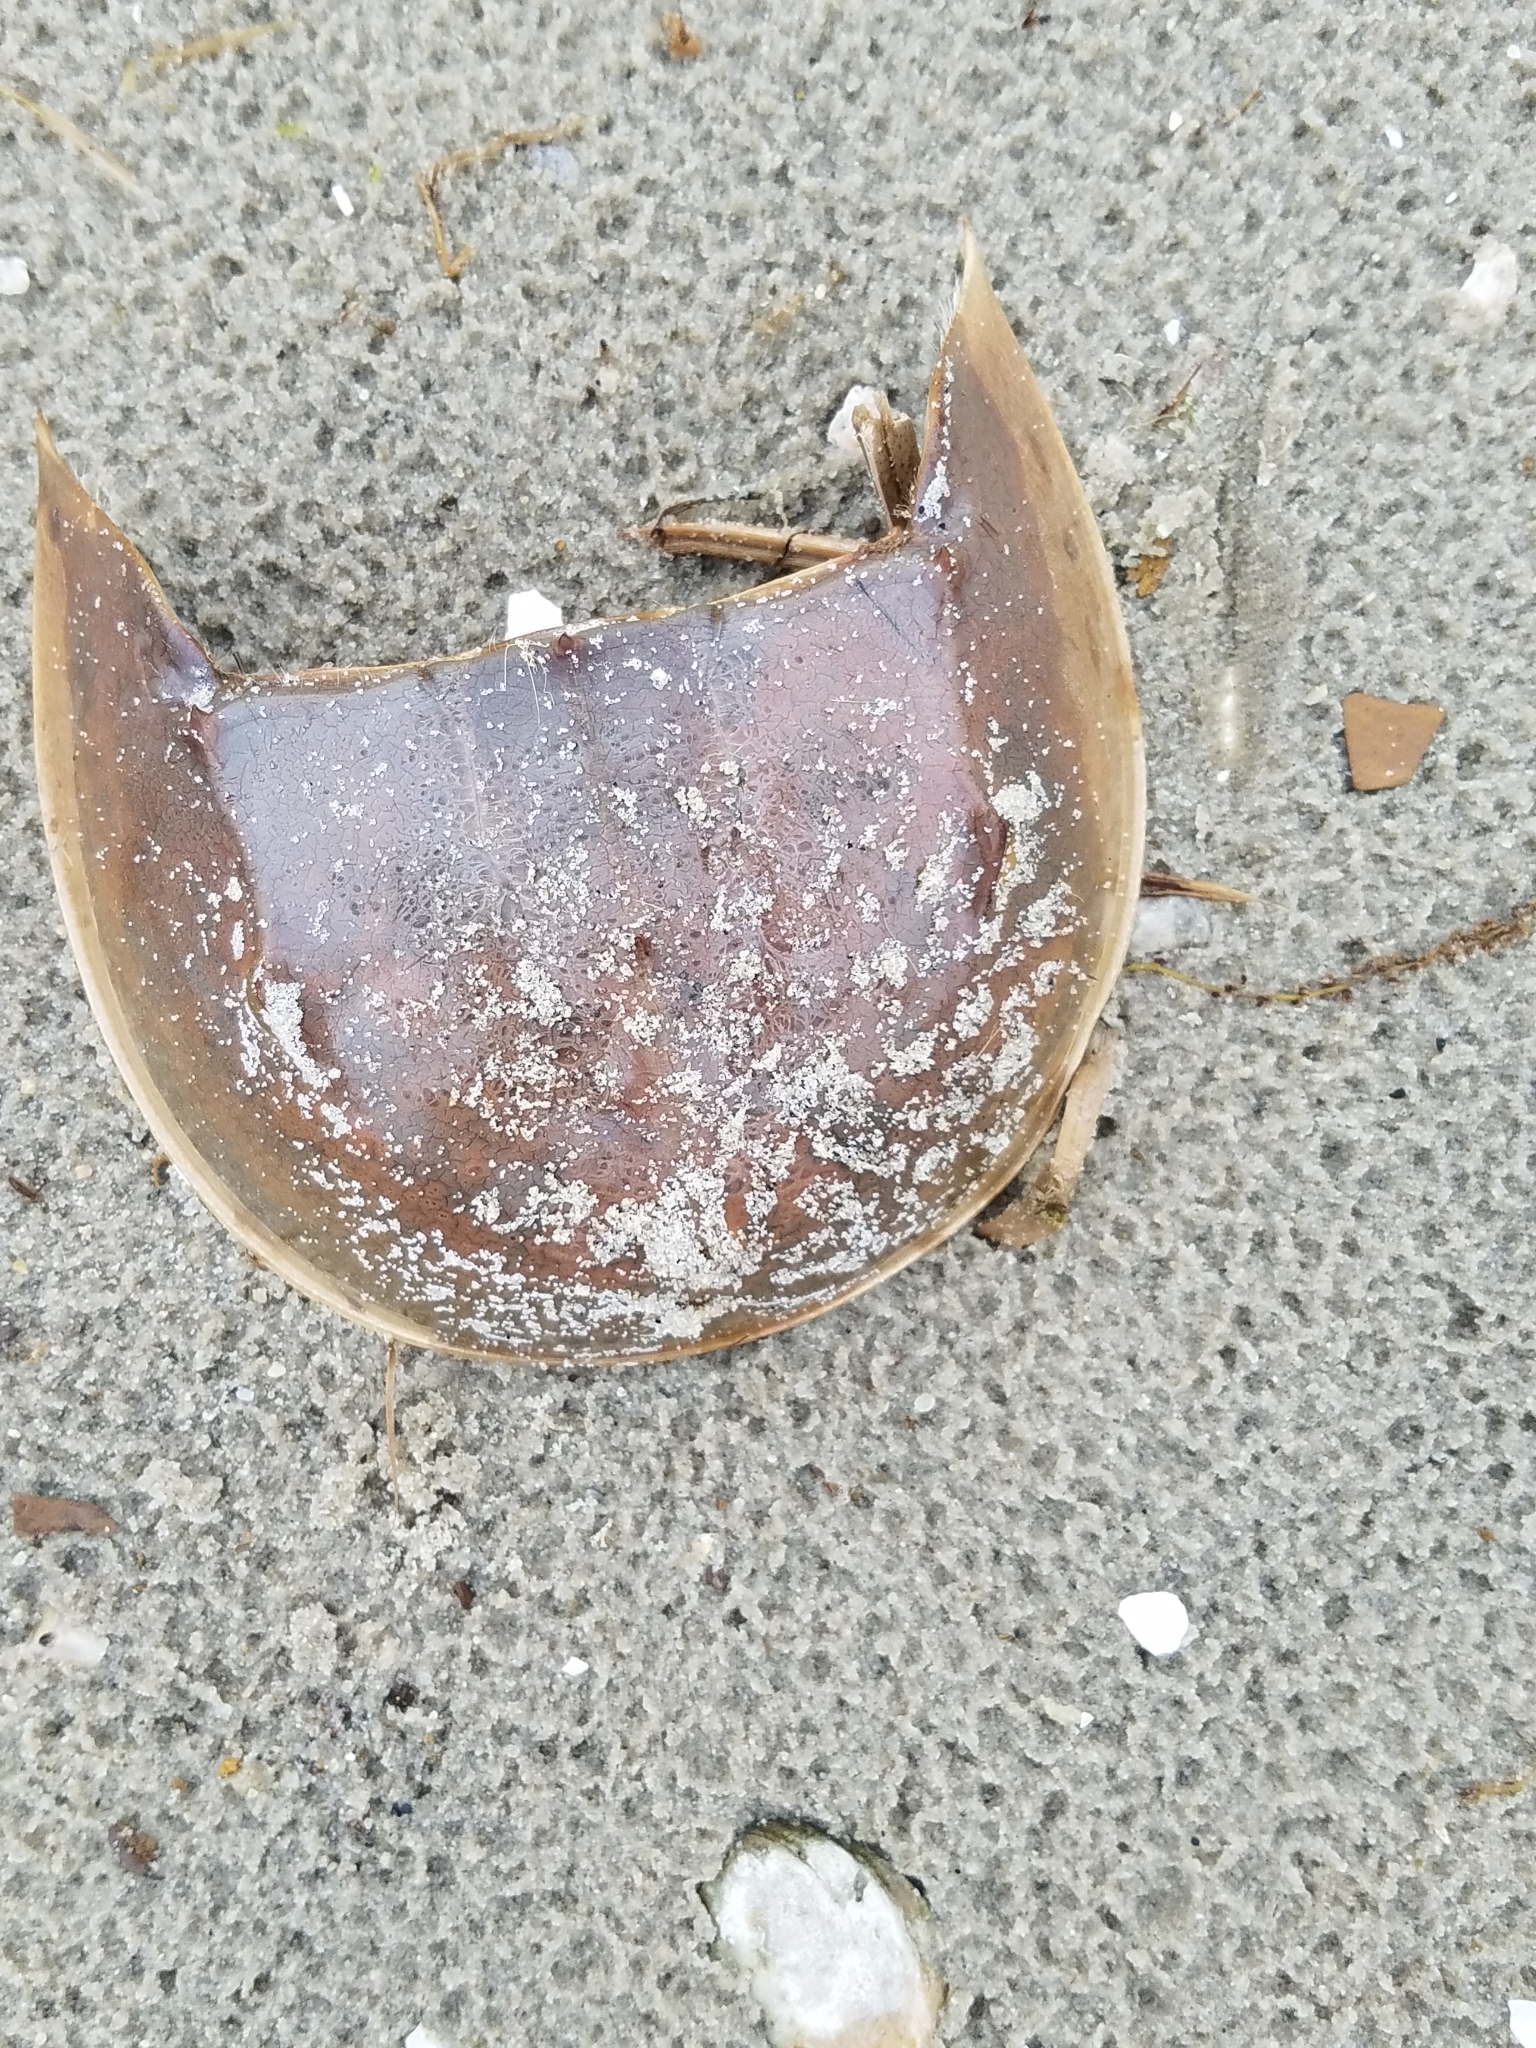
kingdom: Animalia
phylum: Arthropoda
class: Merostomata
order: Xiphosurida
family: Limulidae
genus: Limulus
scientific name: Limulus polyphemus
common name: Horseshoe crab
